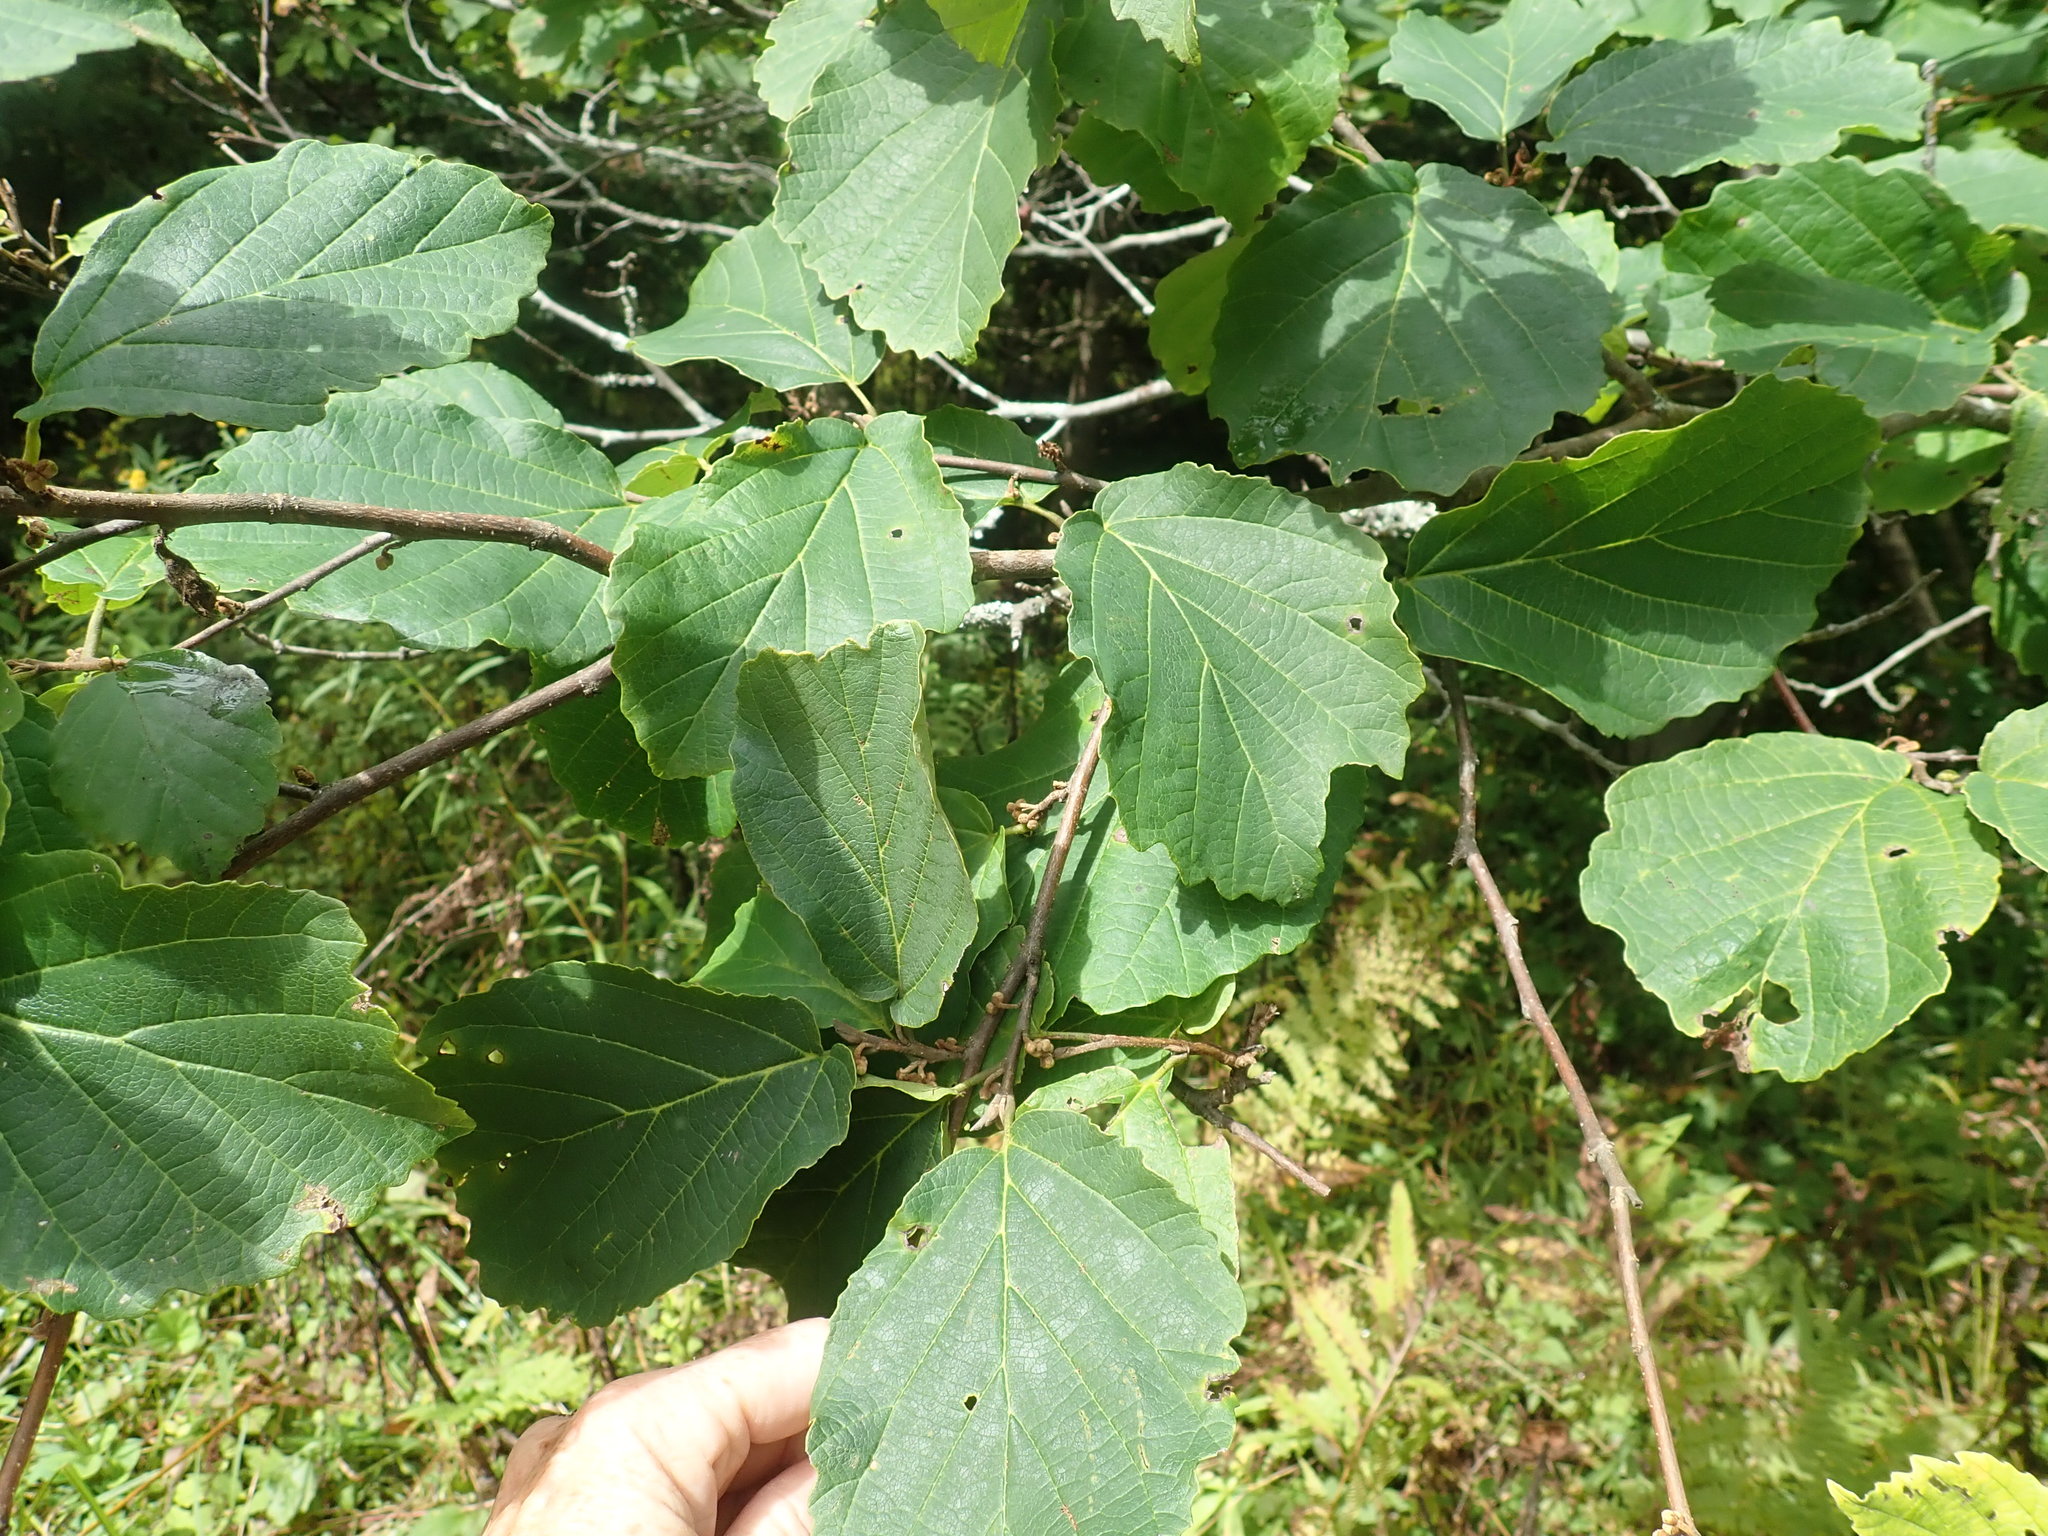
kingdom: Plantae
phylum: Tracheophyta
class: Magnoliopsida
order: Saxifragales
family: Hamamelidaceae
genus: Hamamelis
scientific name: Hamamelis virginiana
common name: Witch-hazel
